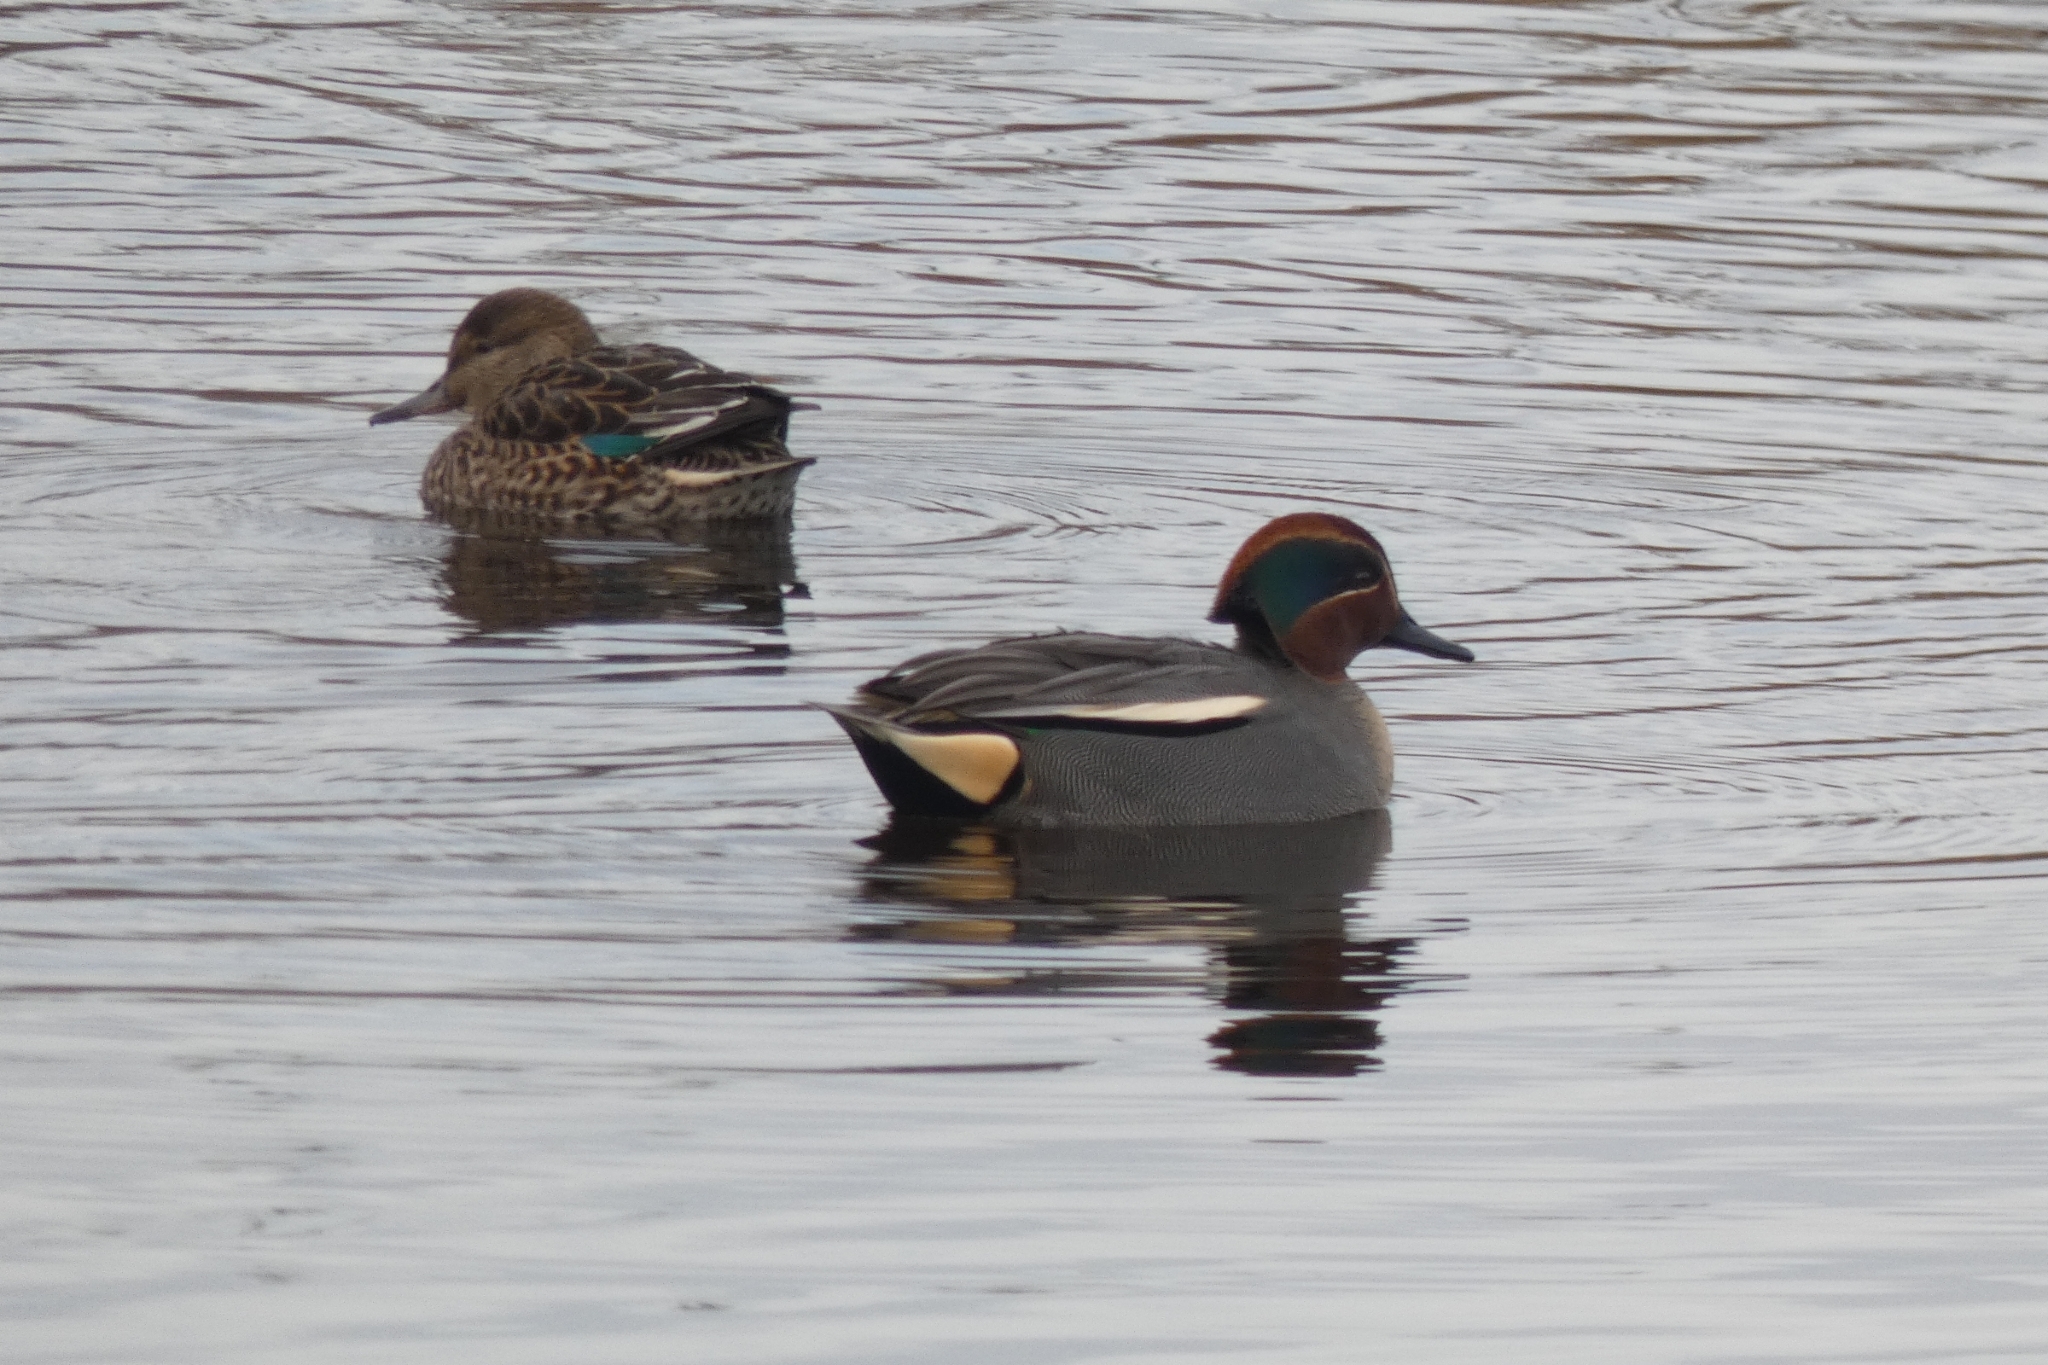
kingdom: Animalia
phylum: Chordata
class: Aves
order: Anseriformes
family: Anatidae
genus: Anas
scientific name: Anas crecca
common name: Eurasian teal
